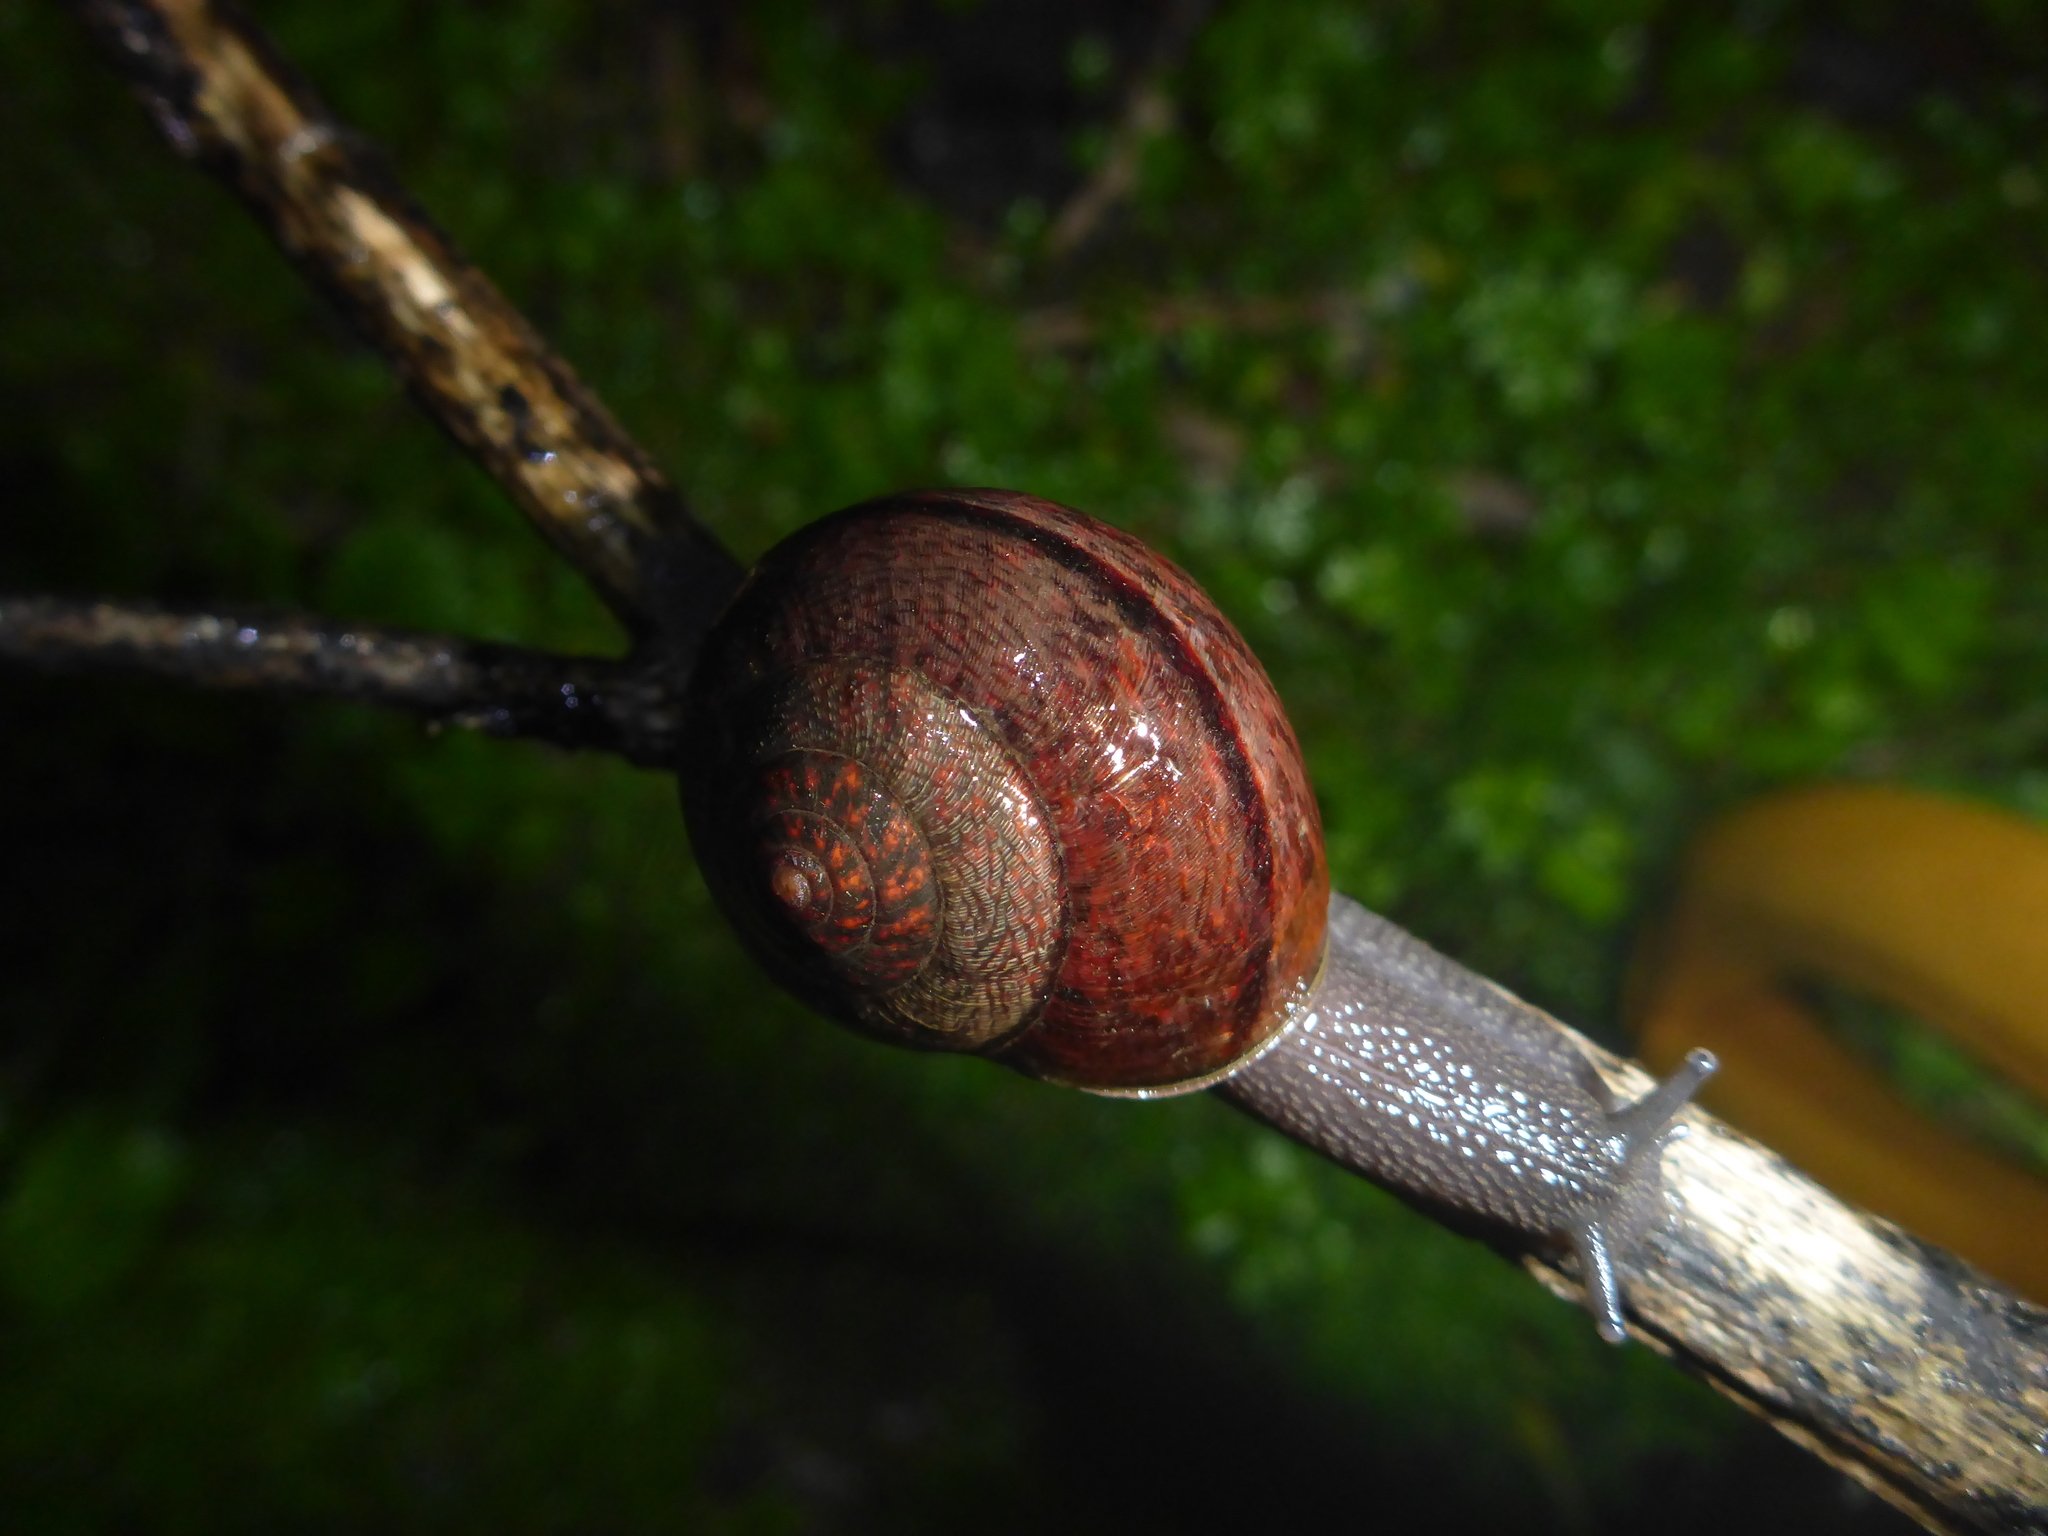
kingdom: Animalia
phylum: Mollusca
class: Gastropoda
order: Stylommatophora
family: Xanthonychidae
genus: Helminthoglypta
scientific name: Helminthoglypta nickliniana
